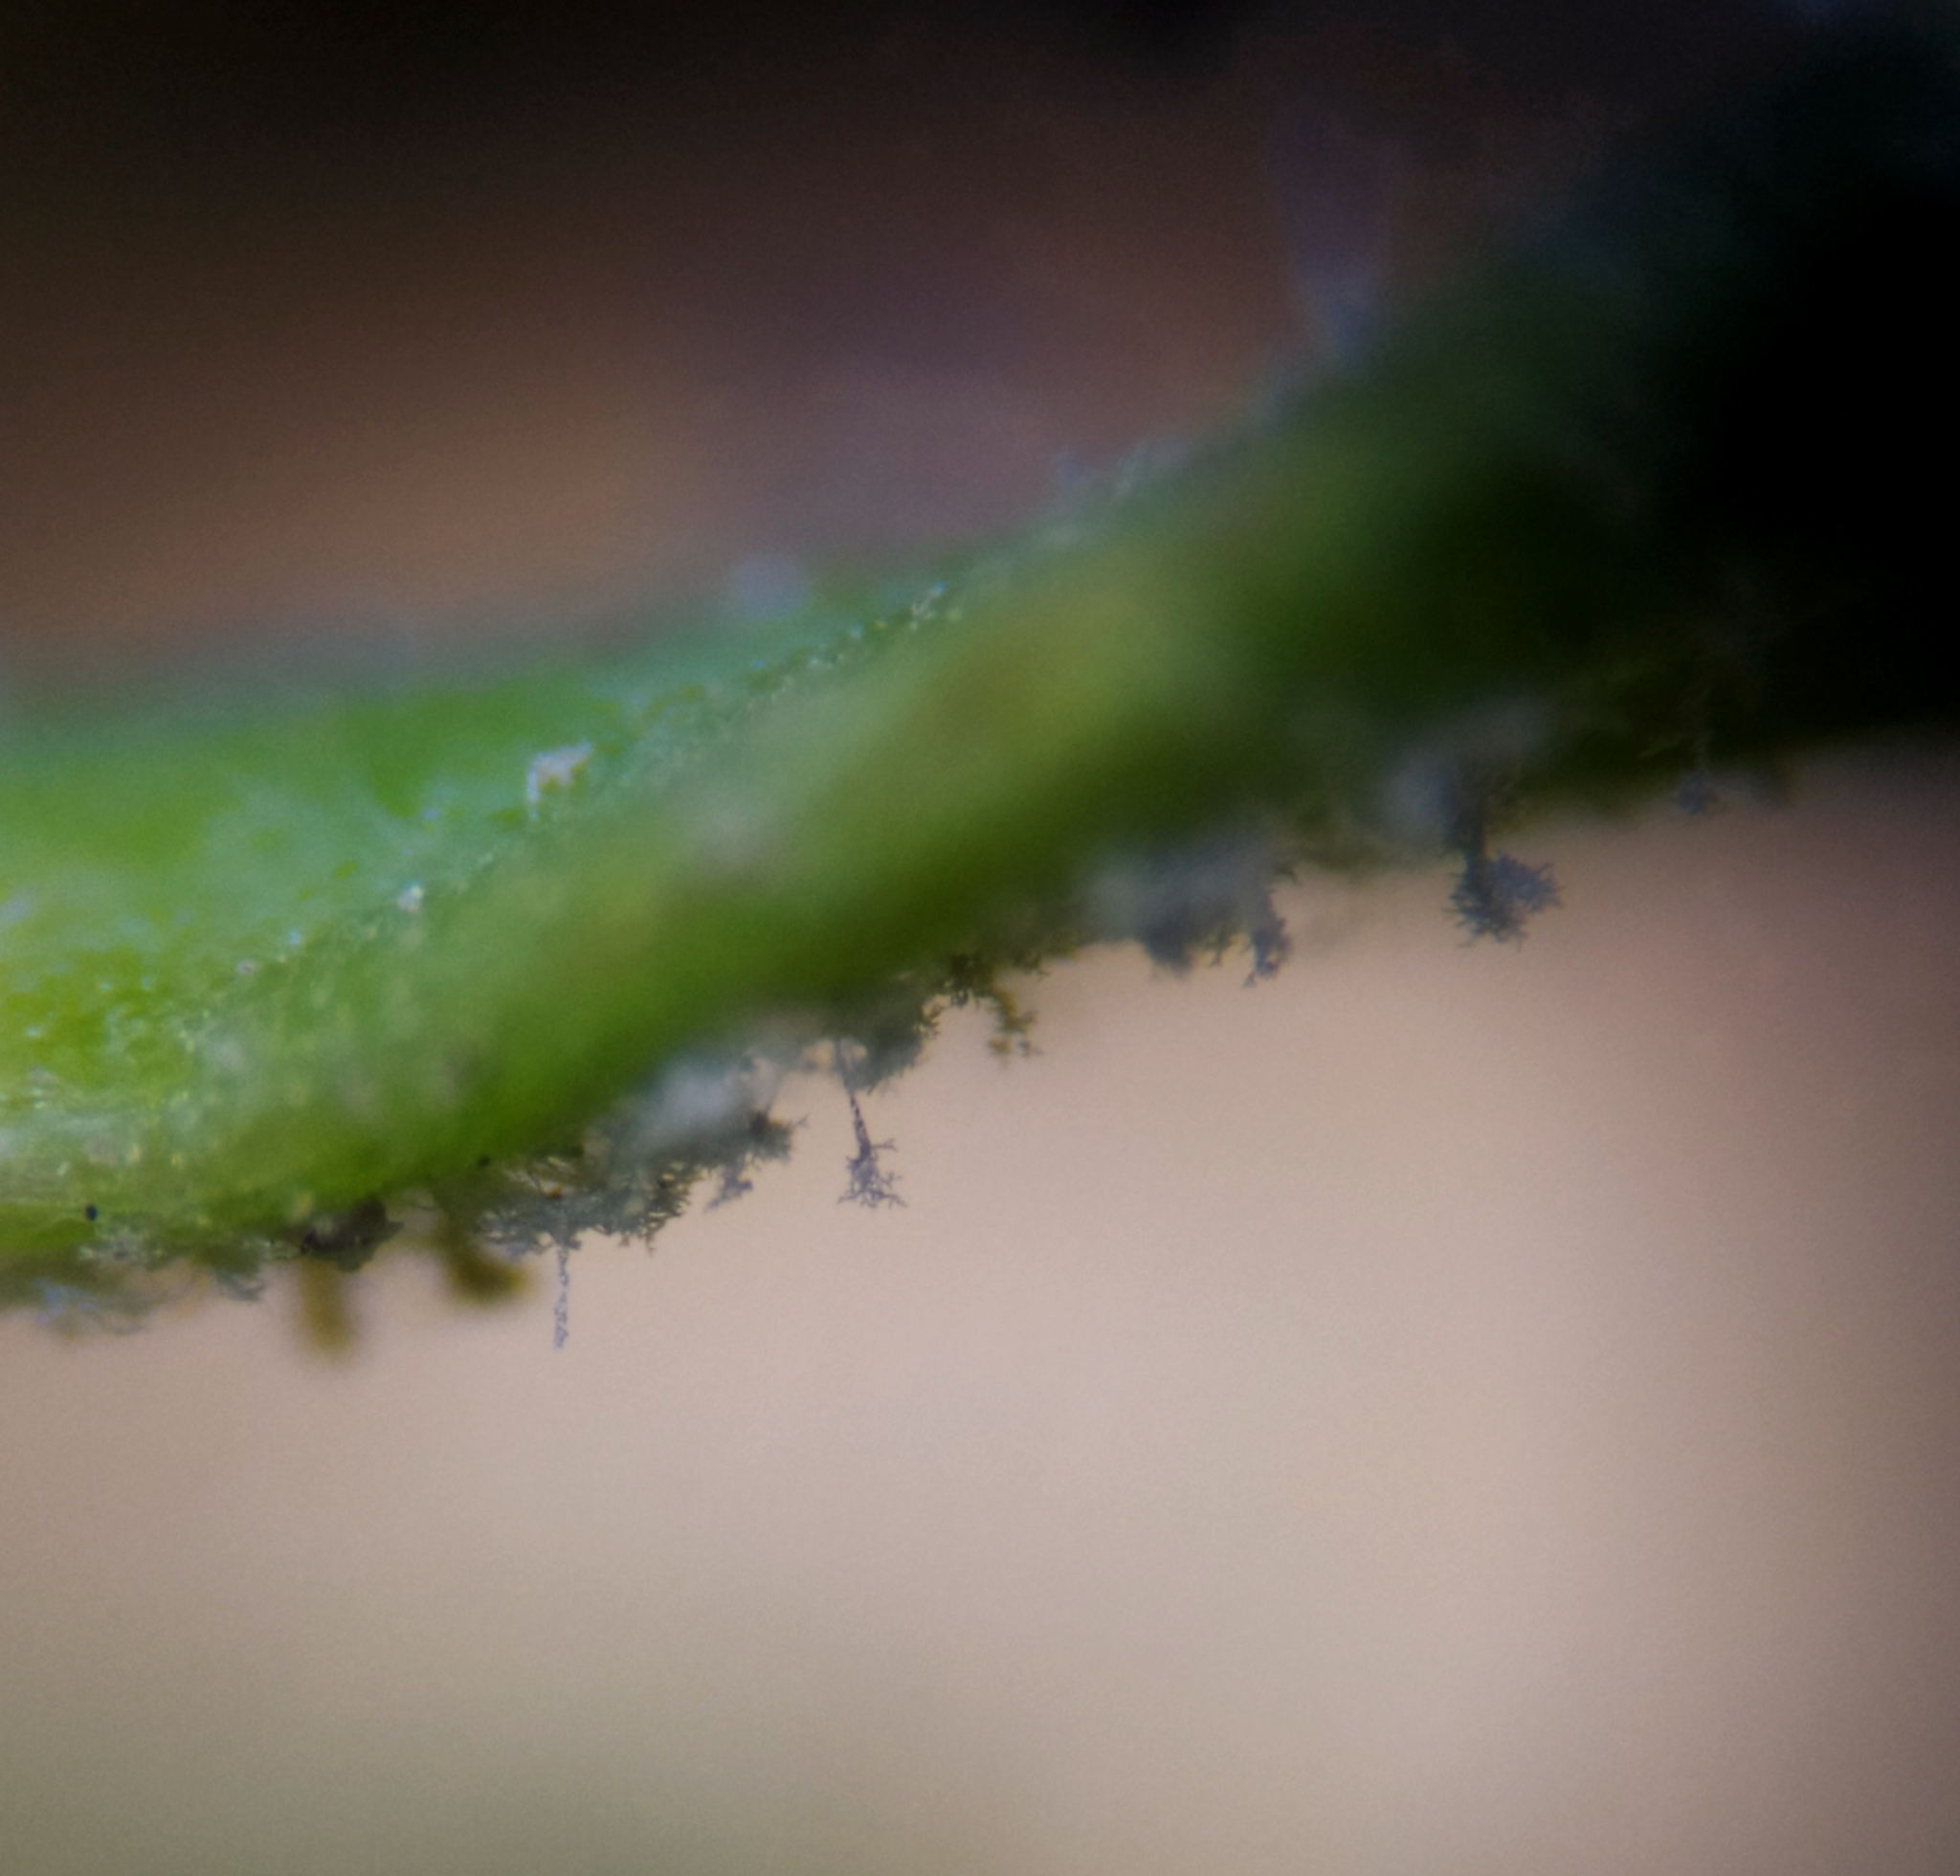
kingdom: Chromista
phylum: Oomycota
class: Peronosporea
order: Peronosporales
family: Peronosporaceae
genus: Peronospora
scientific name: Peronospora holostei
